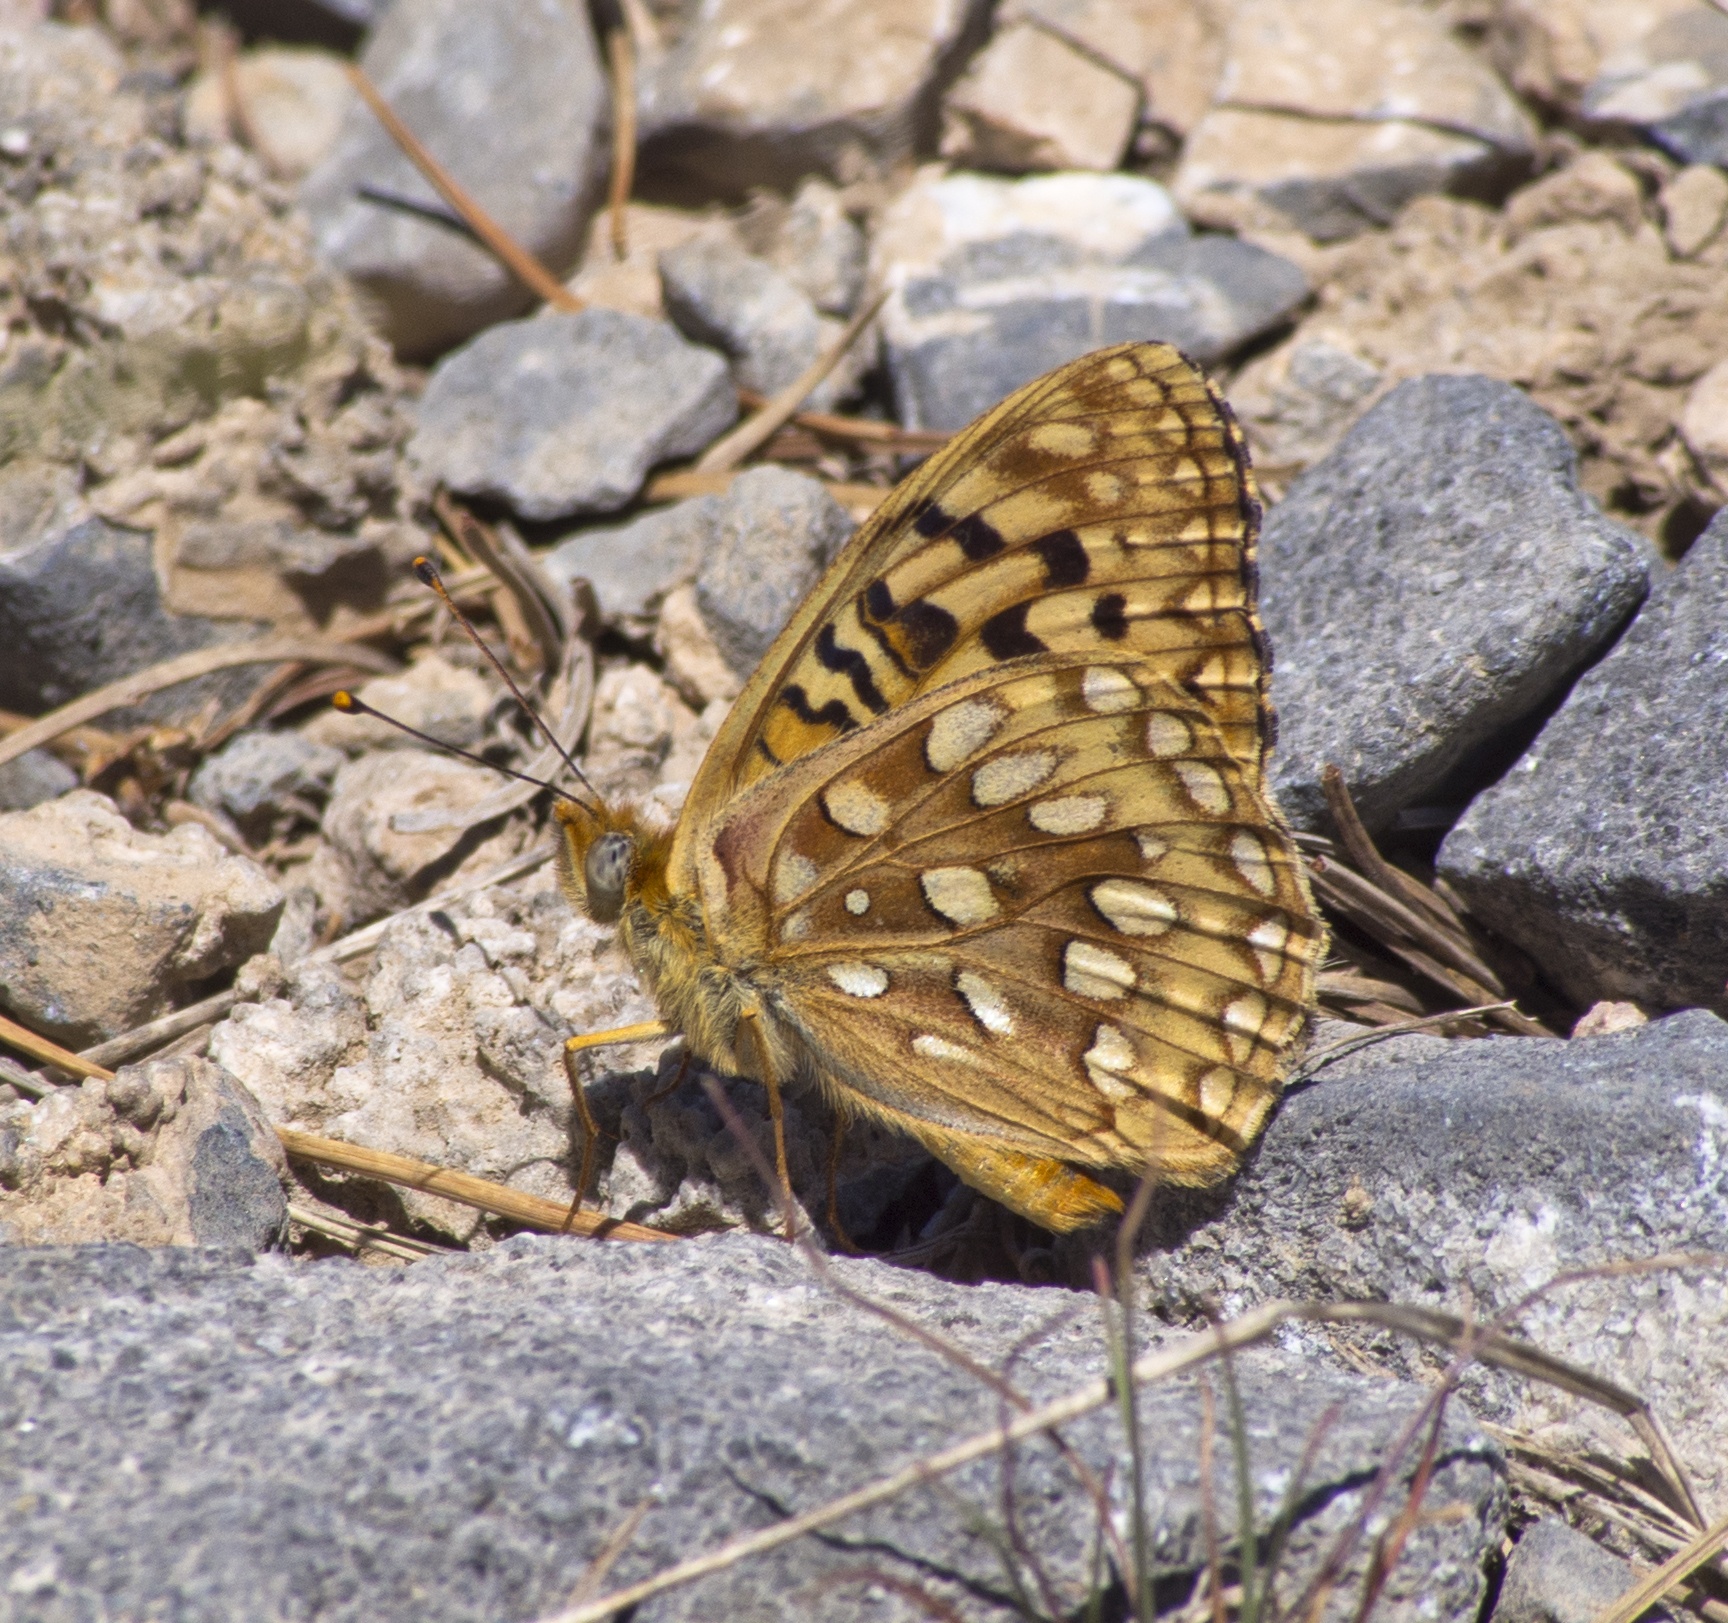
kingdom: Animalia
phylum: Arthropoda
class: Insecta
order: Lepidoptera
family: Nymphalidae
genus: Speyeria
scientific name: Speyeria egleis
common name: Great basin fritillary
